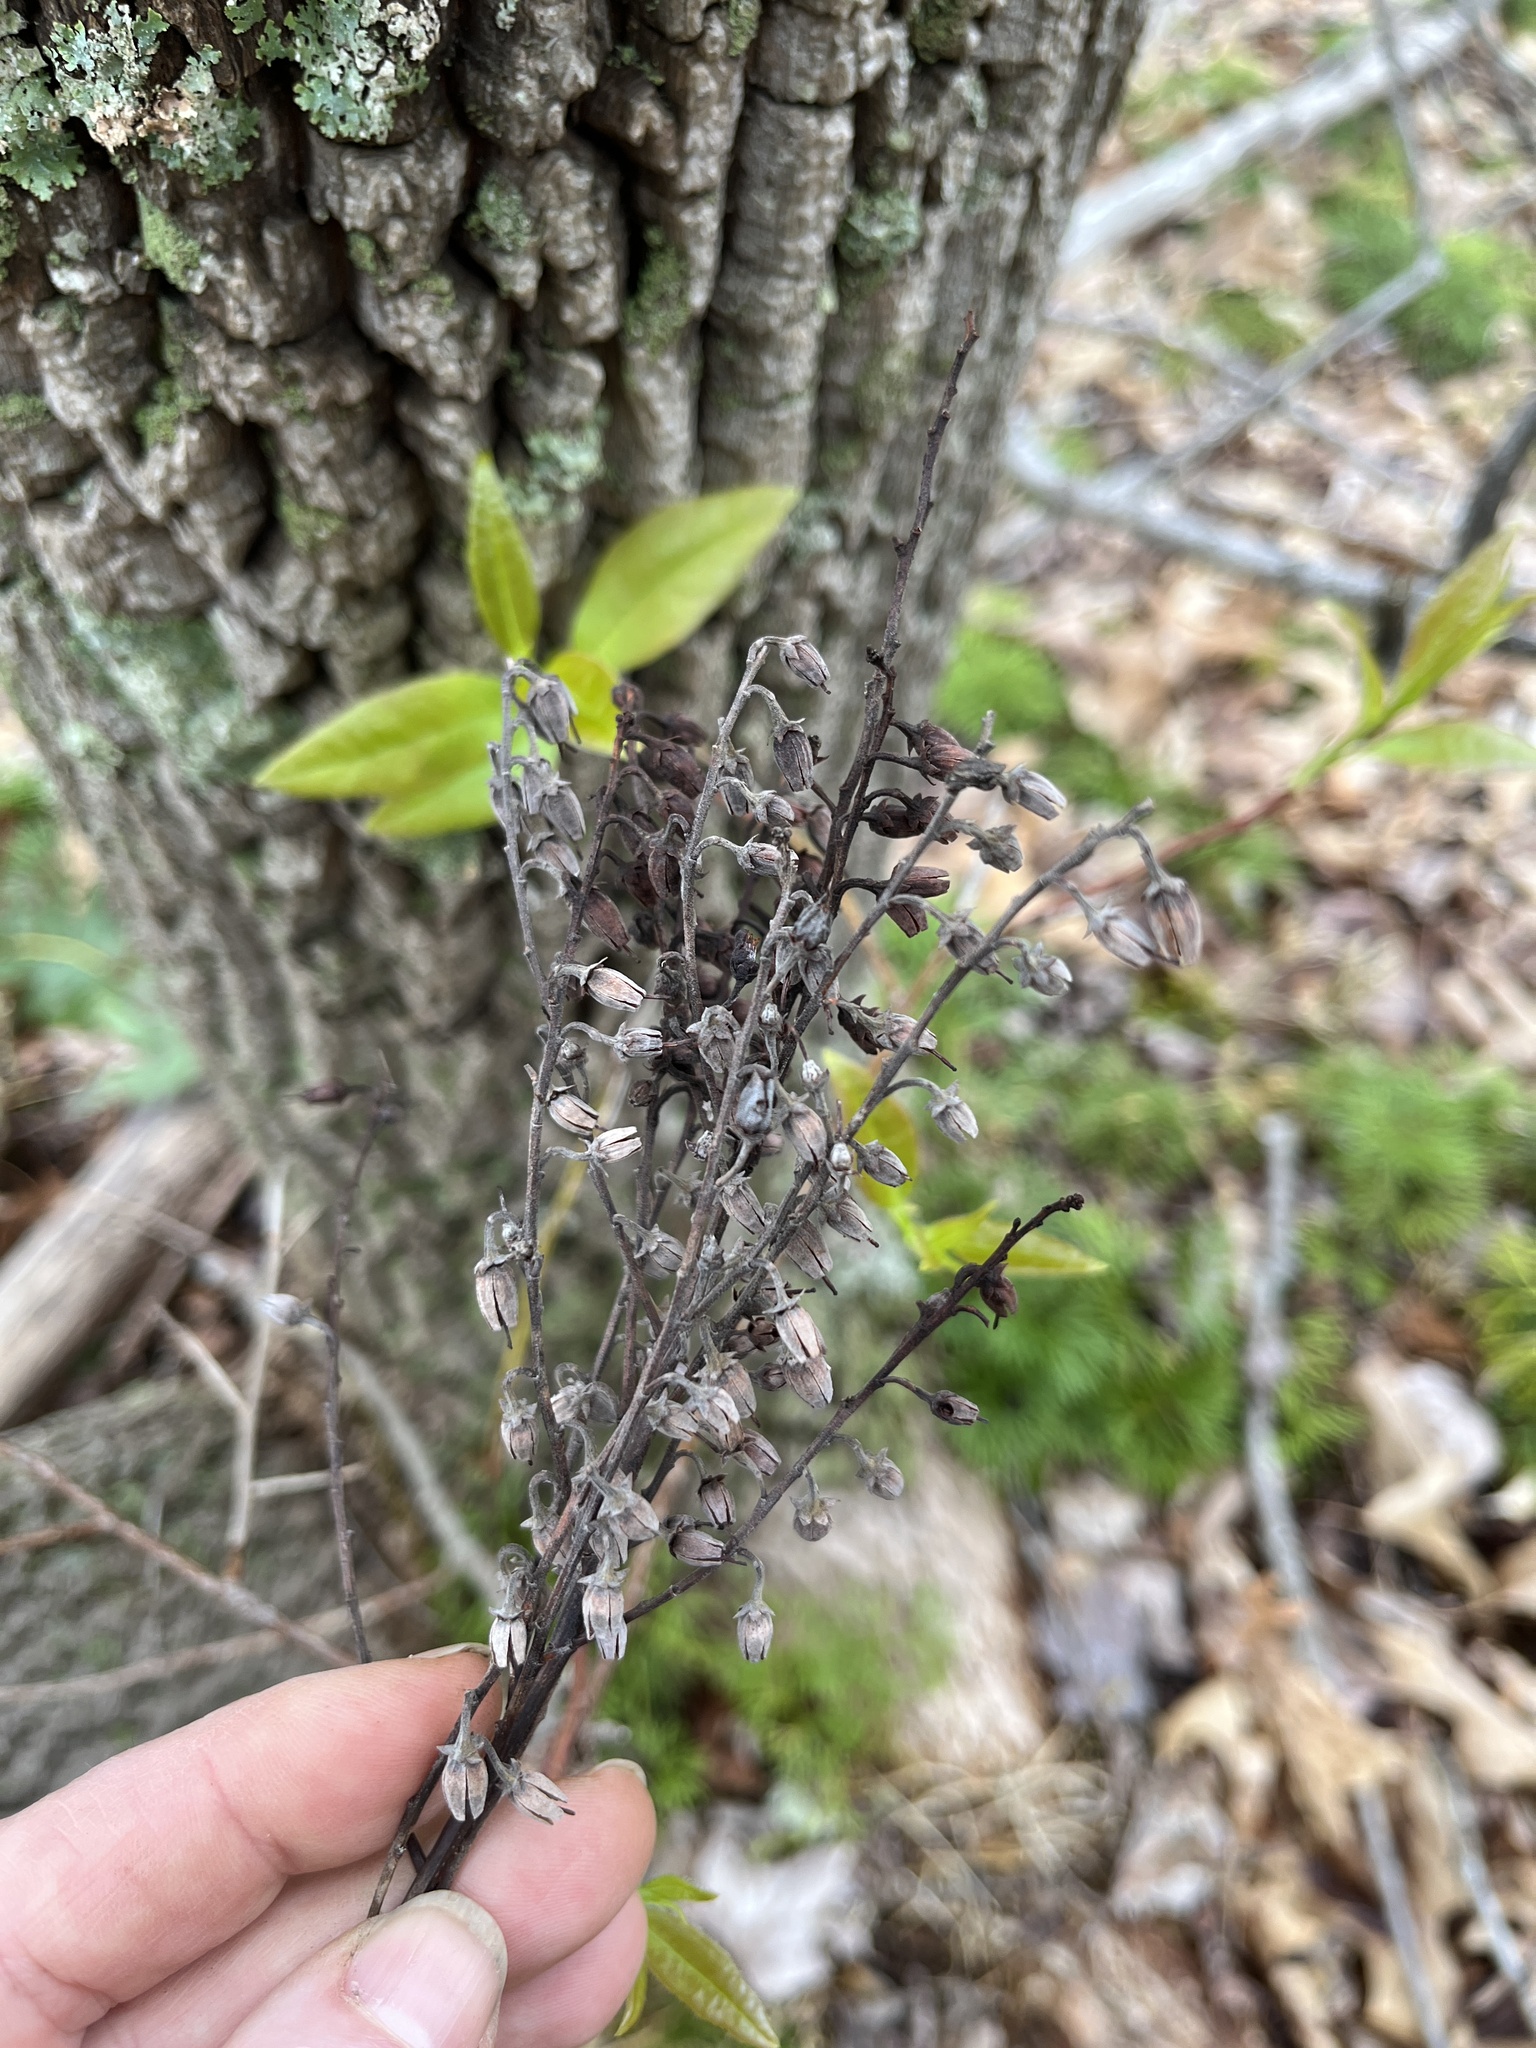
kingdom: Plantae
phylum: Tracheophyta
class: Magnoliopsida
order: Ericales
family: Ericaceae
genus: Oxydendrum
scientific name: Oxydendrum arboreum
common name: Sourwood
